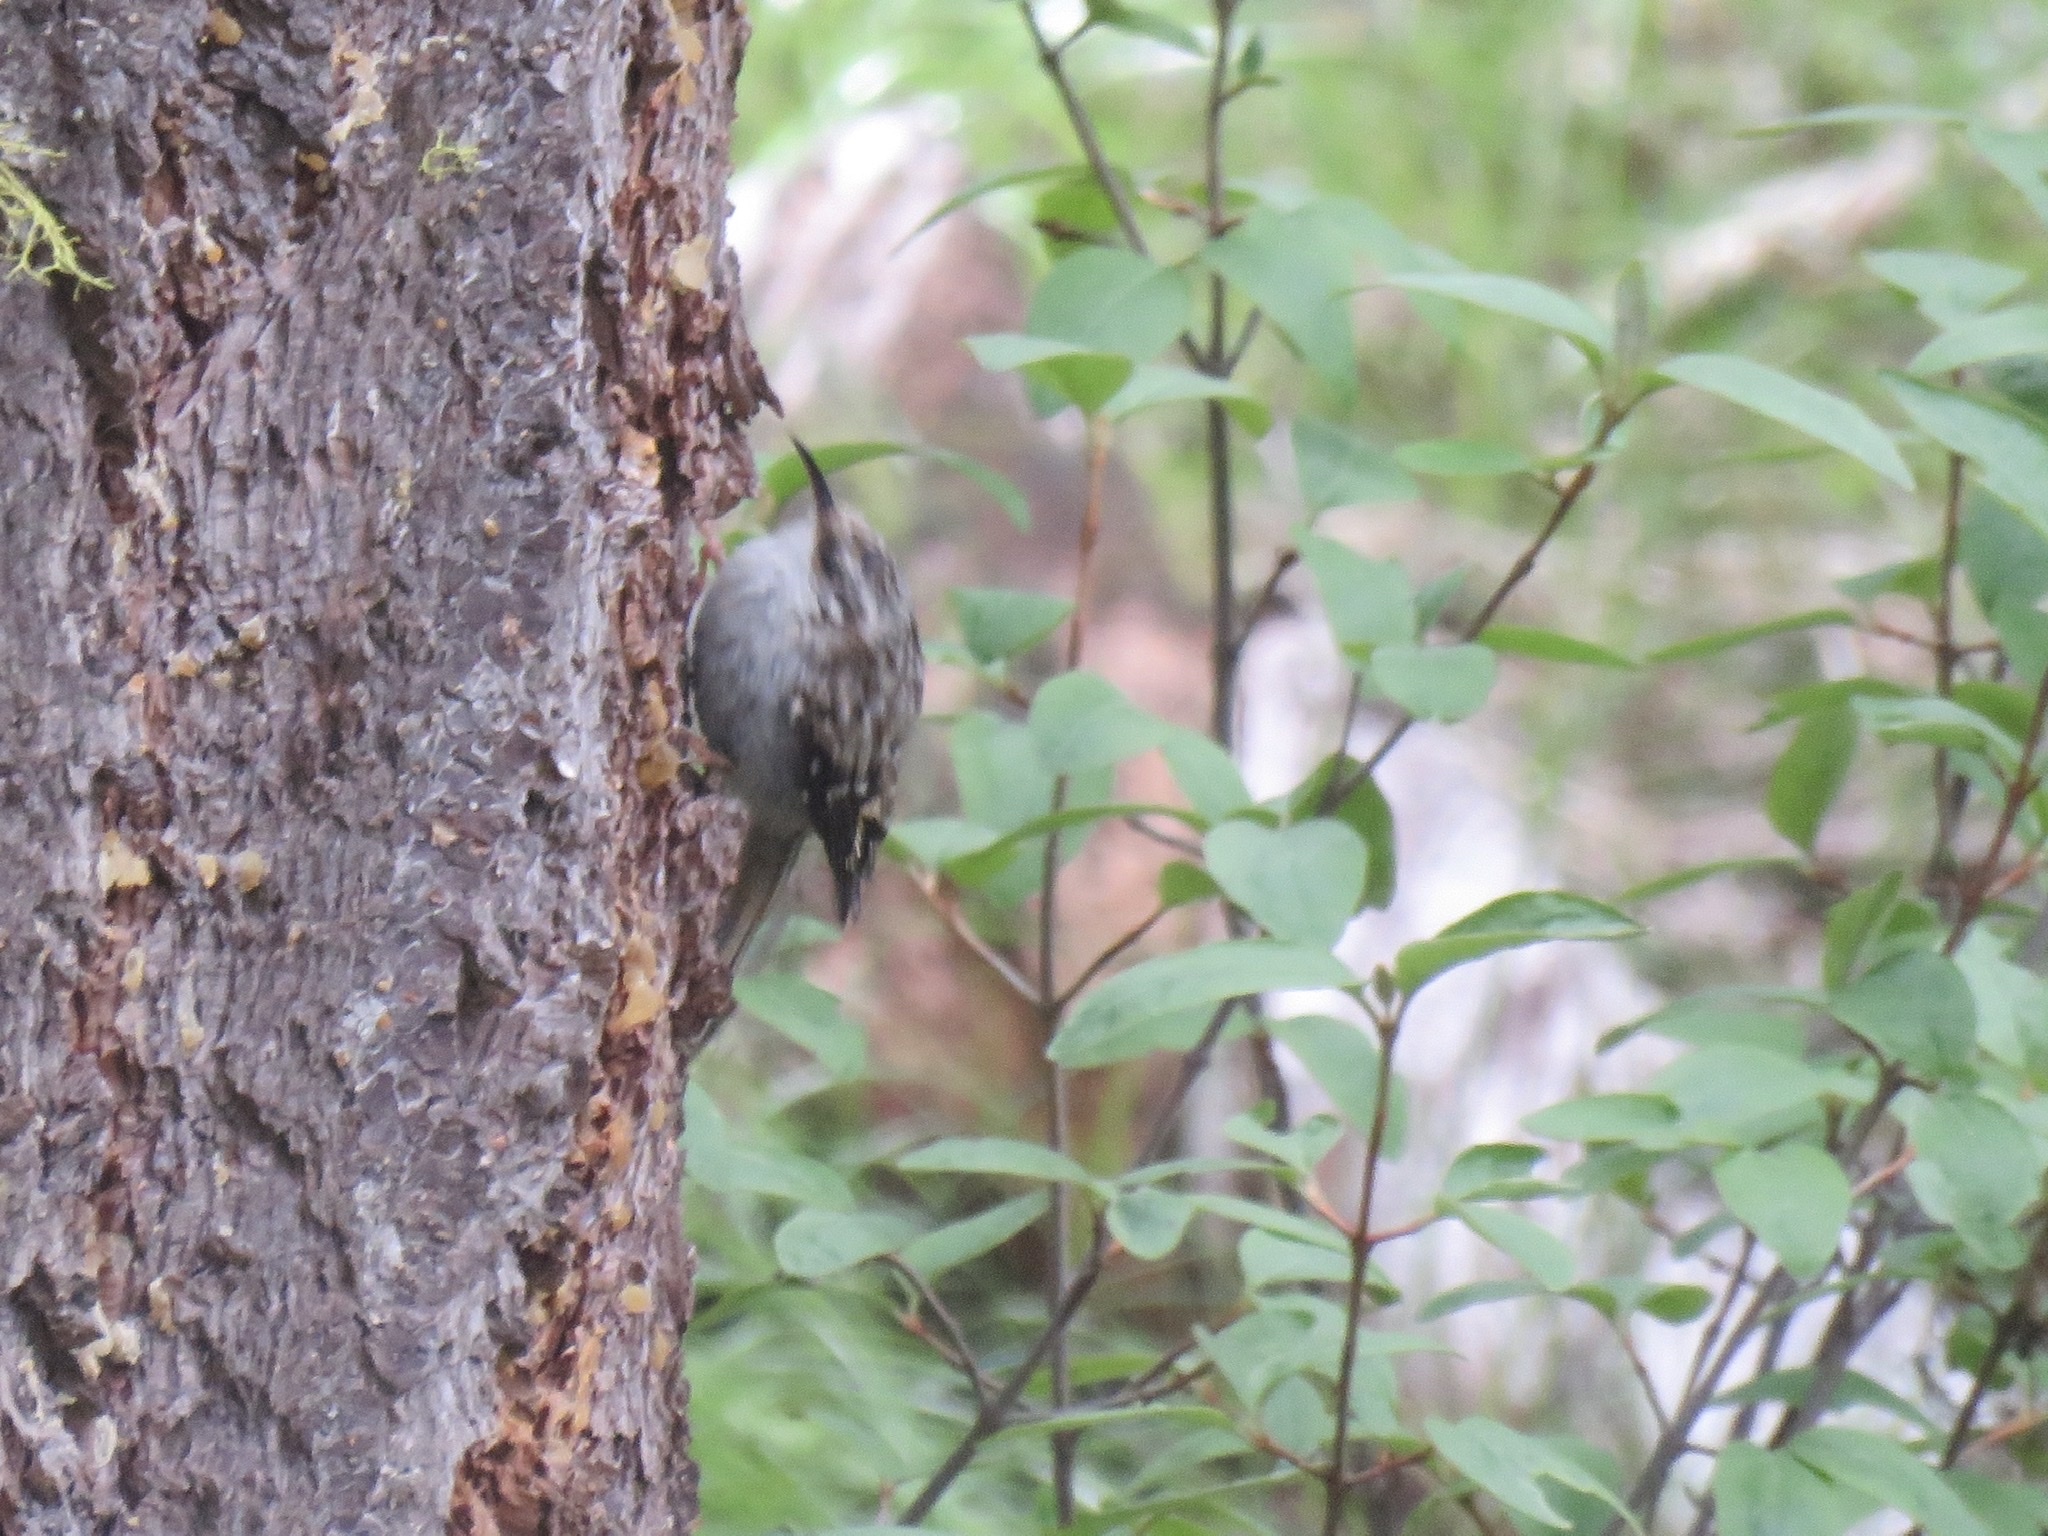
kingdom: Animalia
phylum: Chordata
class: Aves
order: Passeriformes
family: Certhiidae
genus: Certhia
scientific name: Certhia americana
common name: Brown creeper
